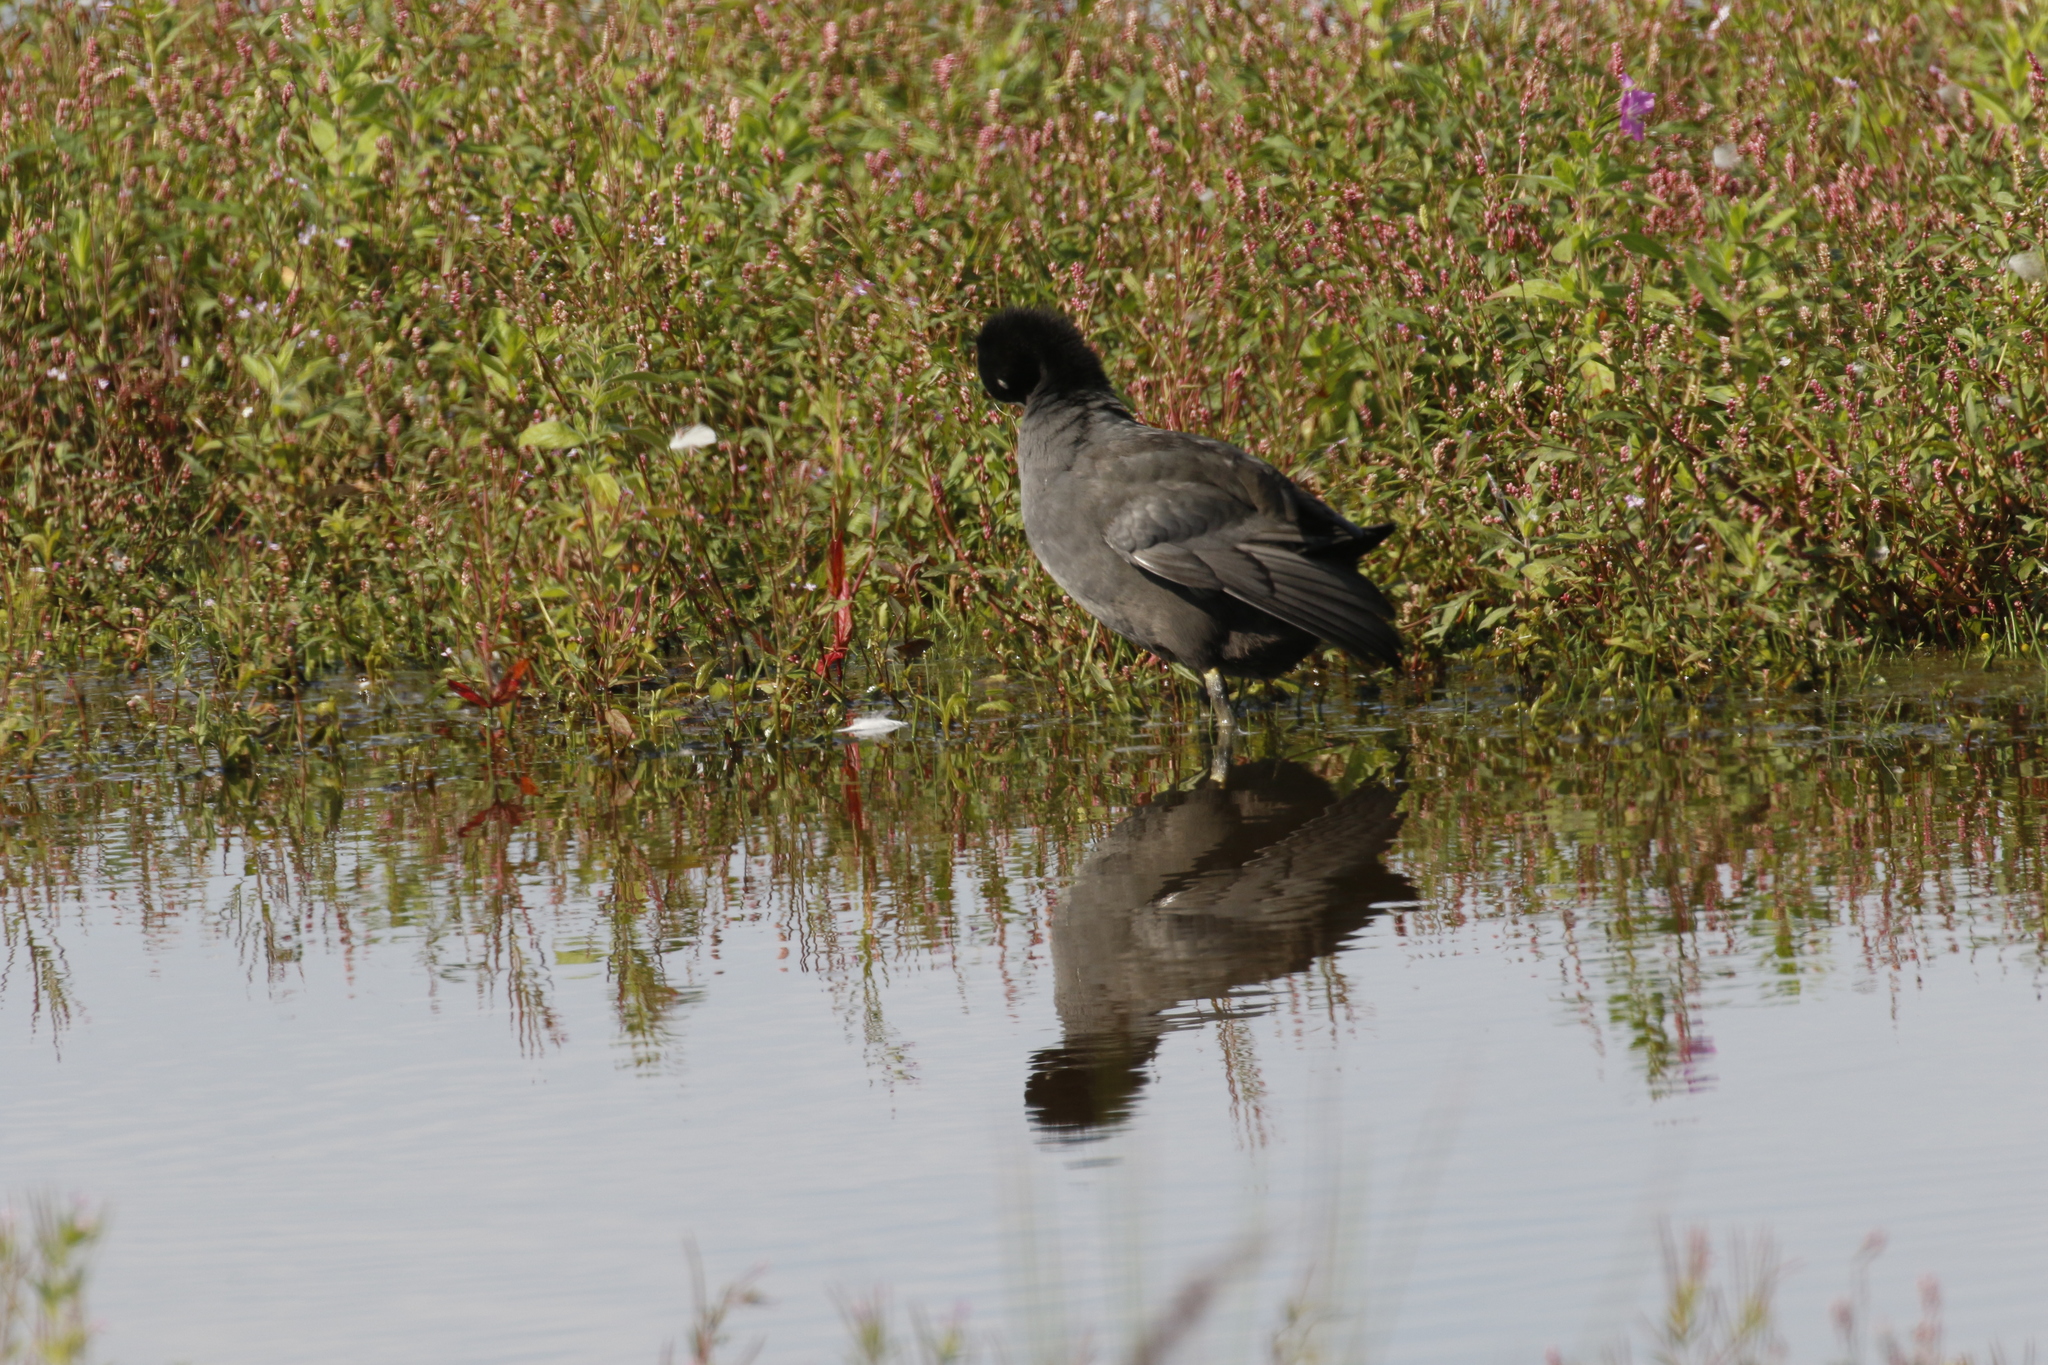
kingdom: Animalia
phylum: Chordata
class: Aves
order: Gruiformes
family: Rallidae
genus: Fulica
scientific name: Fulica atra
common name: Eurasian coot
